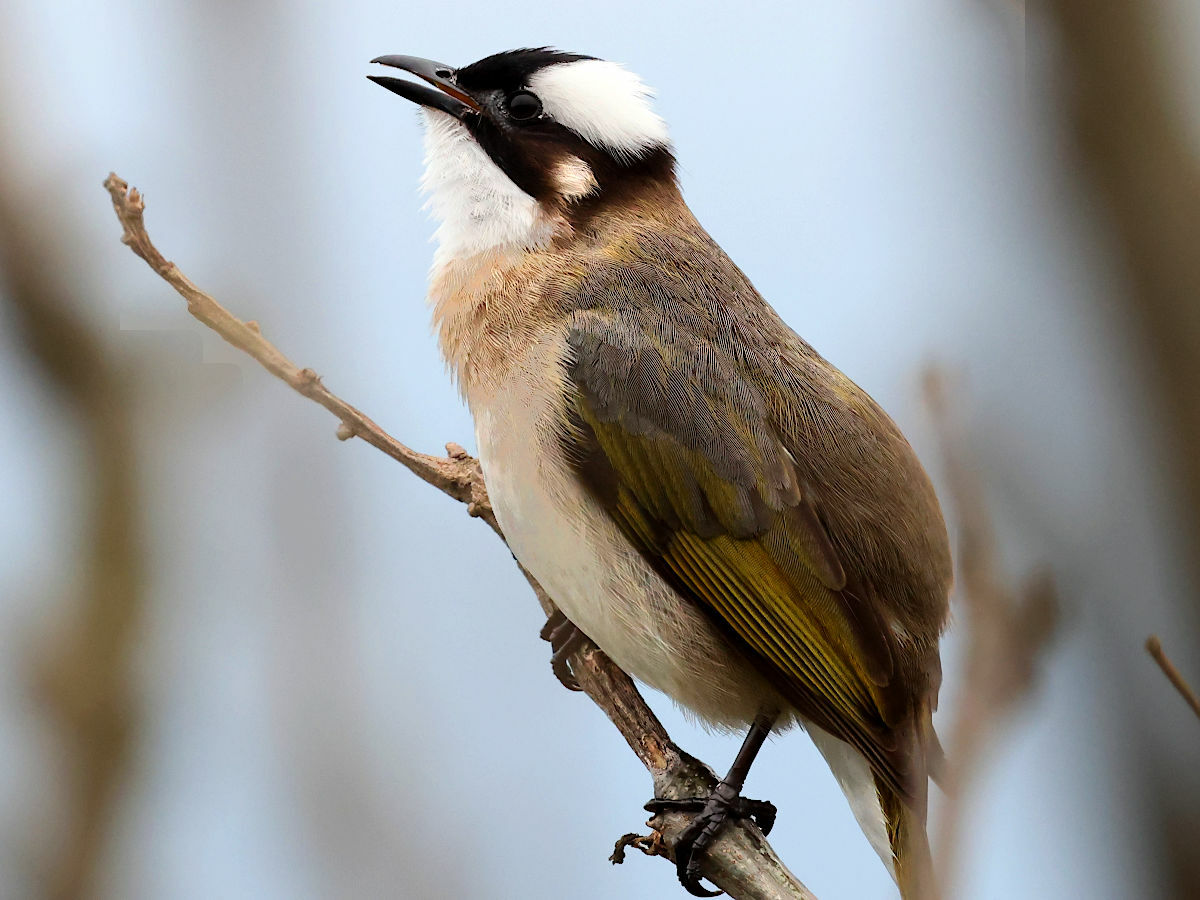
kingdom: Animalia
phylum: Chordata
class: Aves
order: Passeriformes
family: Pycnonotidae
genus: Pycnonotus
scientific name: Pycnonotus sinensis
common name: Light-vented bulbul
